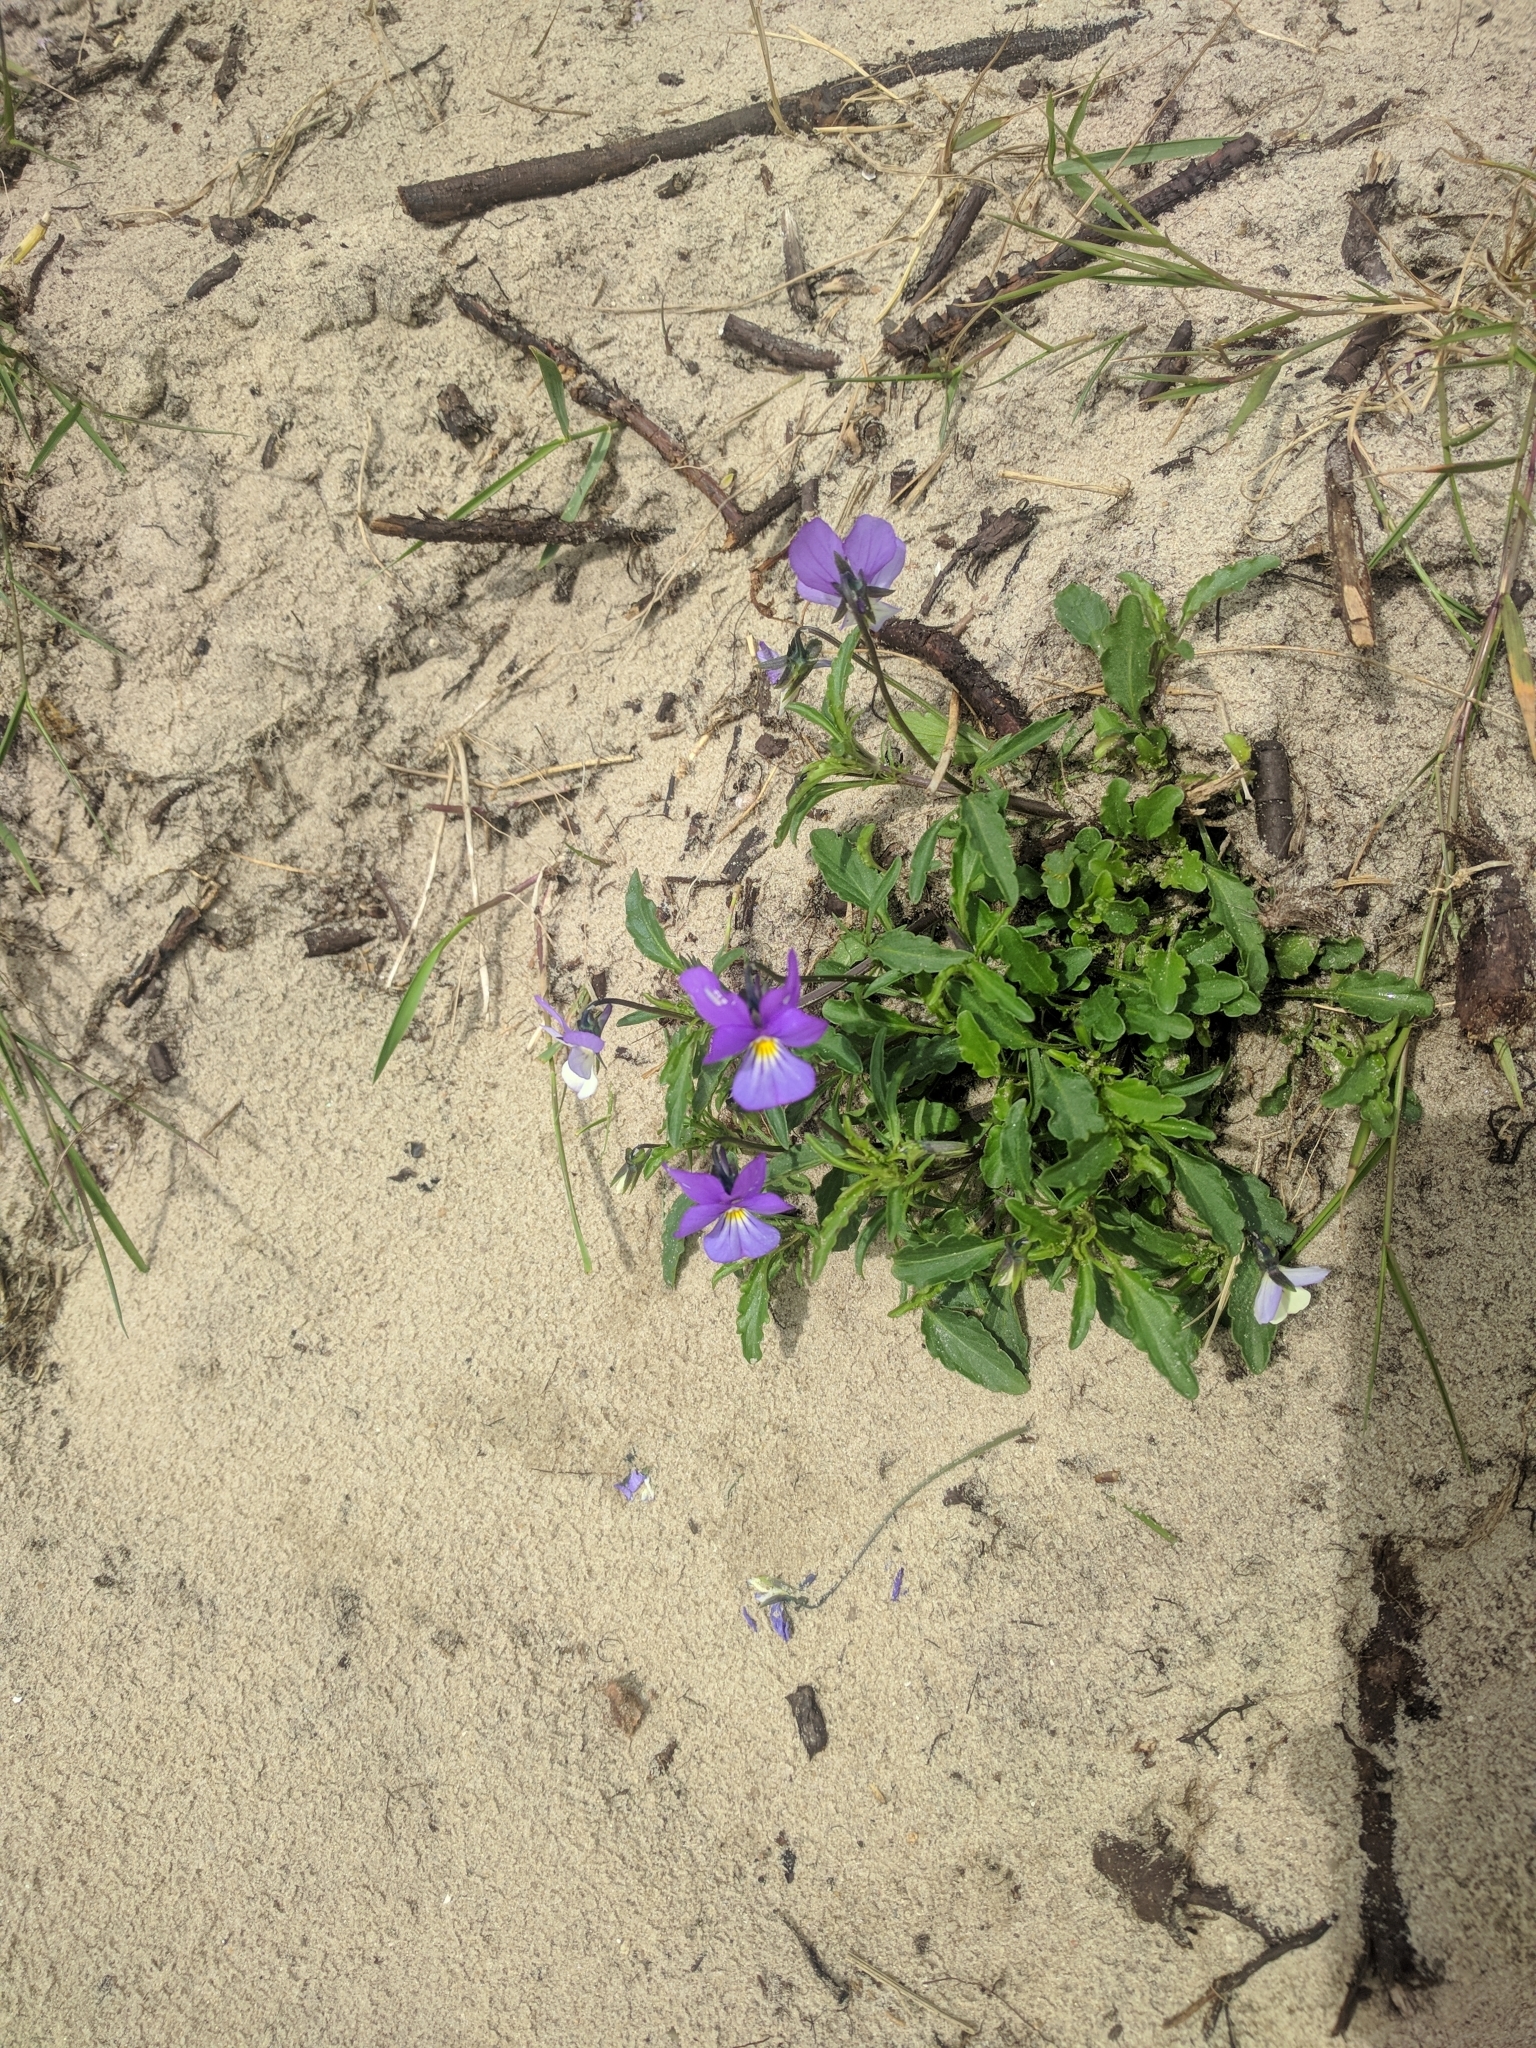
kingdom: Plantae
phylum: Tracheophyta
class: Magnoliopsida
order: Malpighiales
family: Violaceae
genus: Viola
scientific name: Viola tricolor
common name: Pansy
